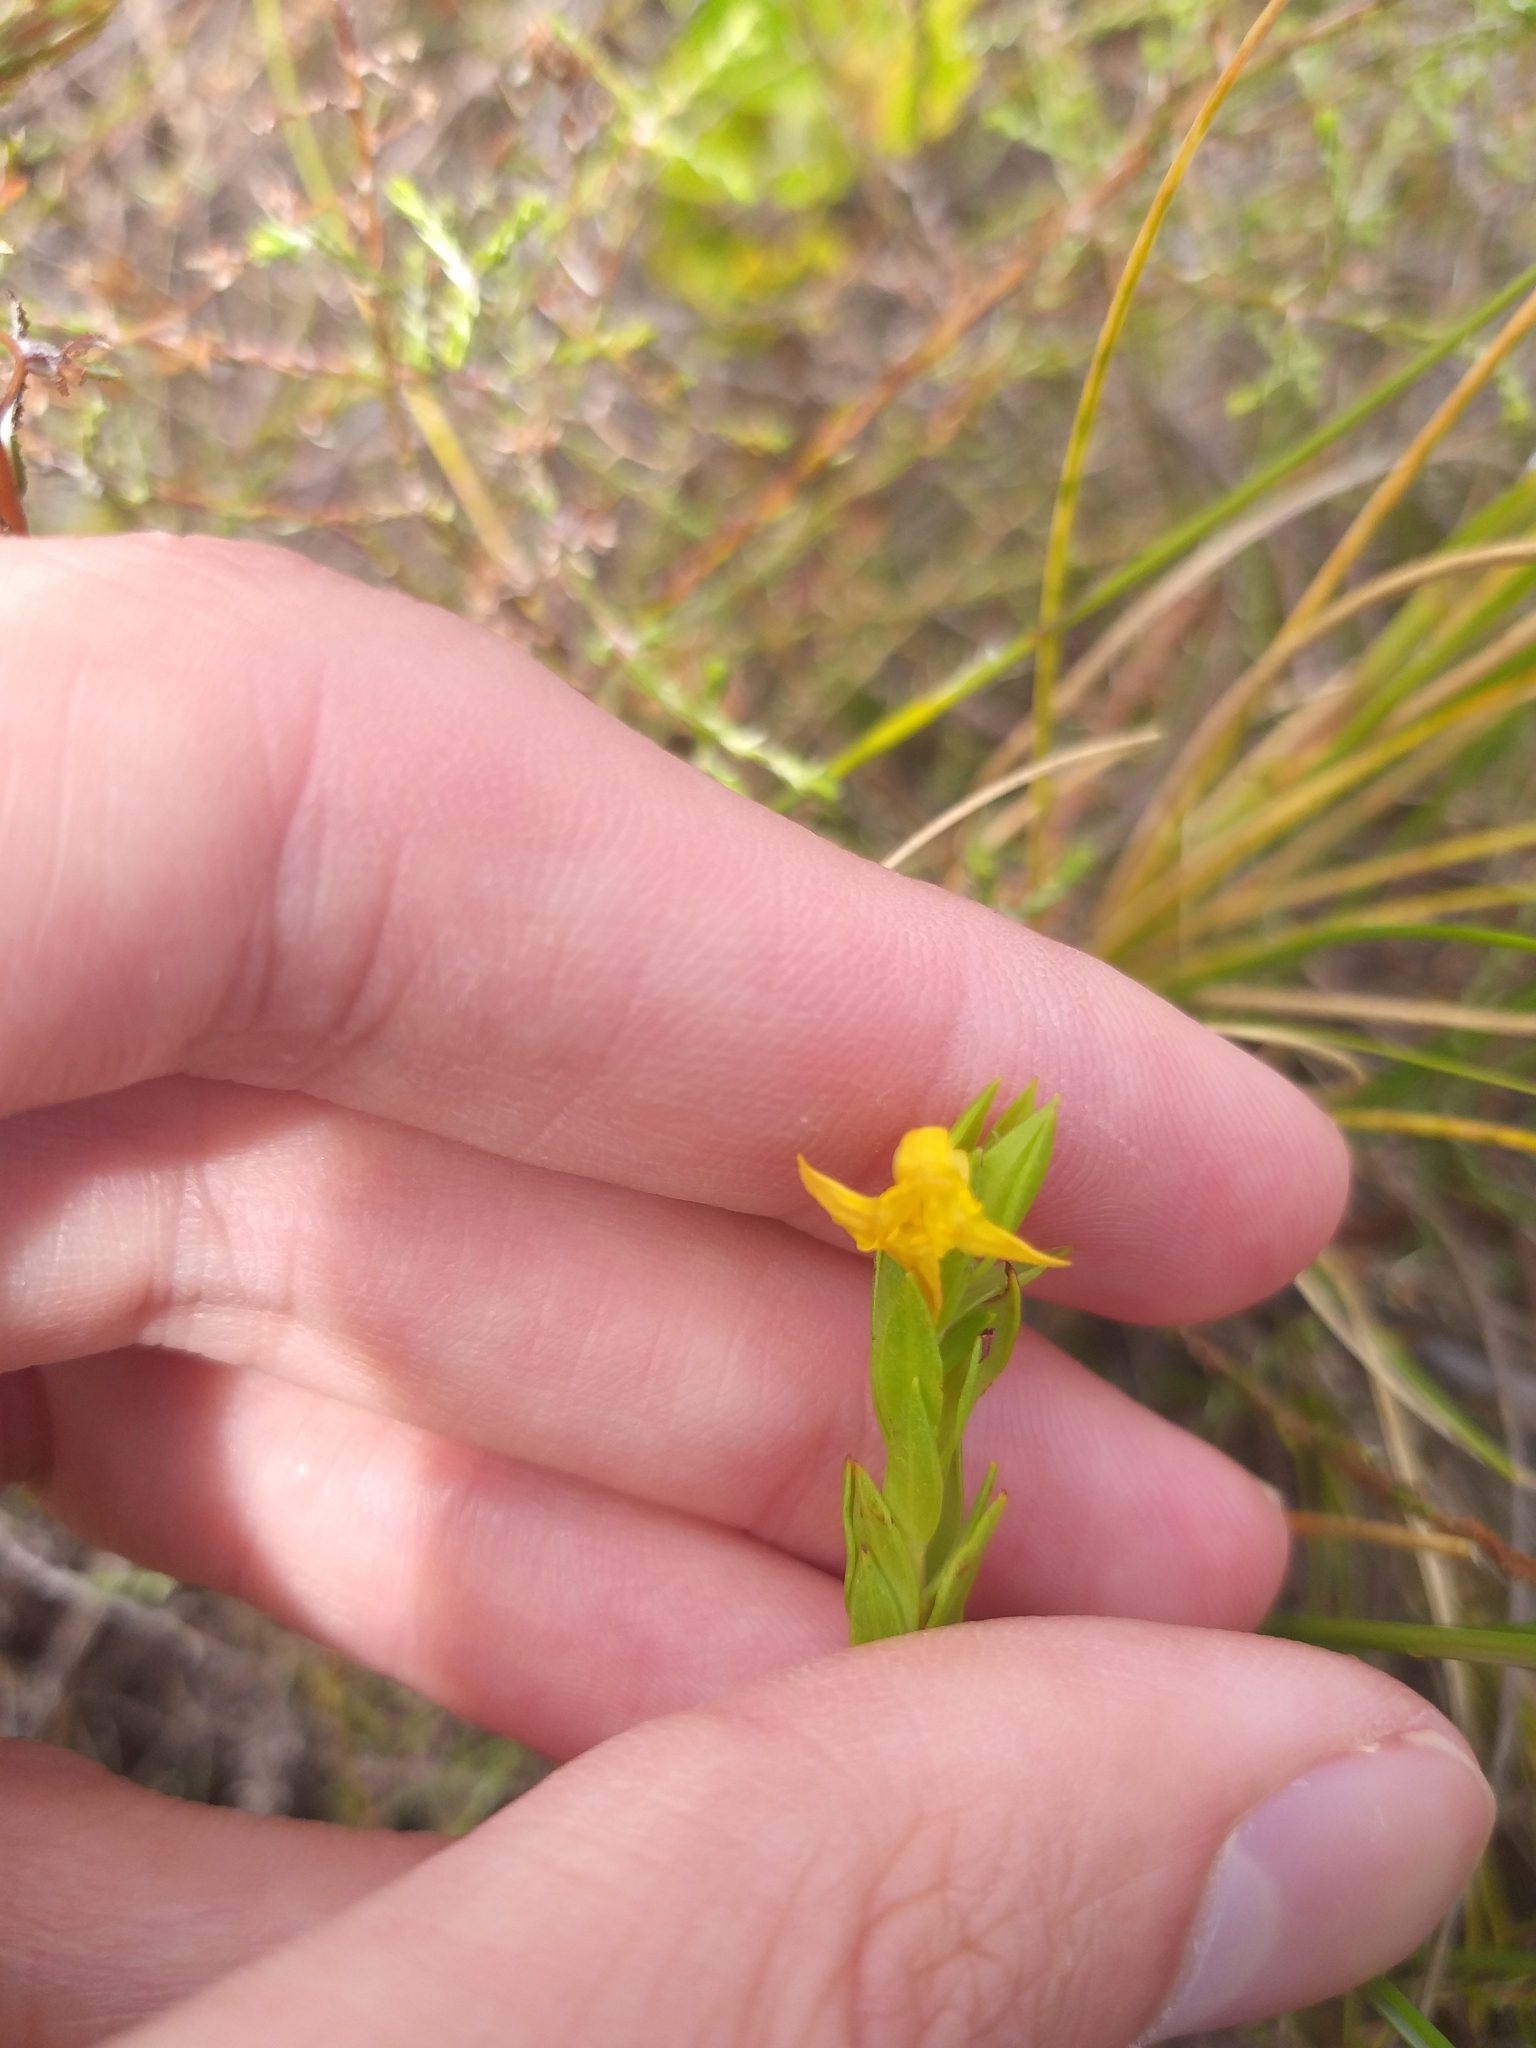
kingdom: Plantae
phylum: Tracheophyta
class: Magnoliopsida
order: Malvales
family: Thymelaeaceae
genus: Gnidia
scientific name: Gnidia juniperifolia
